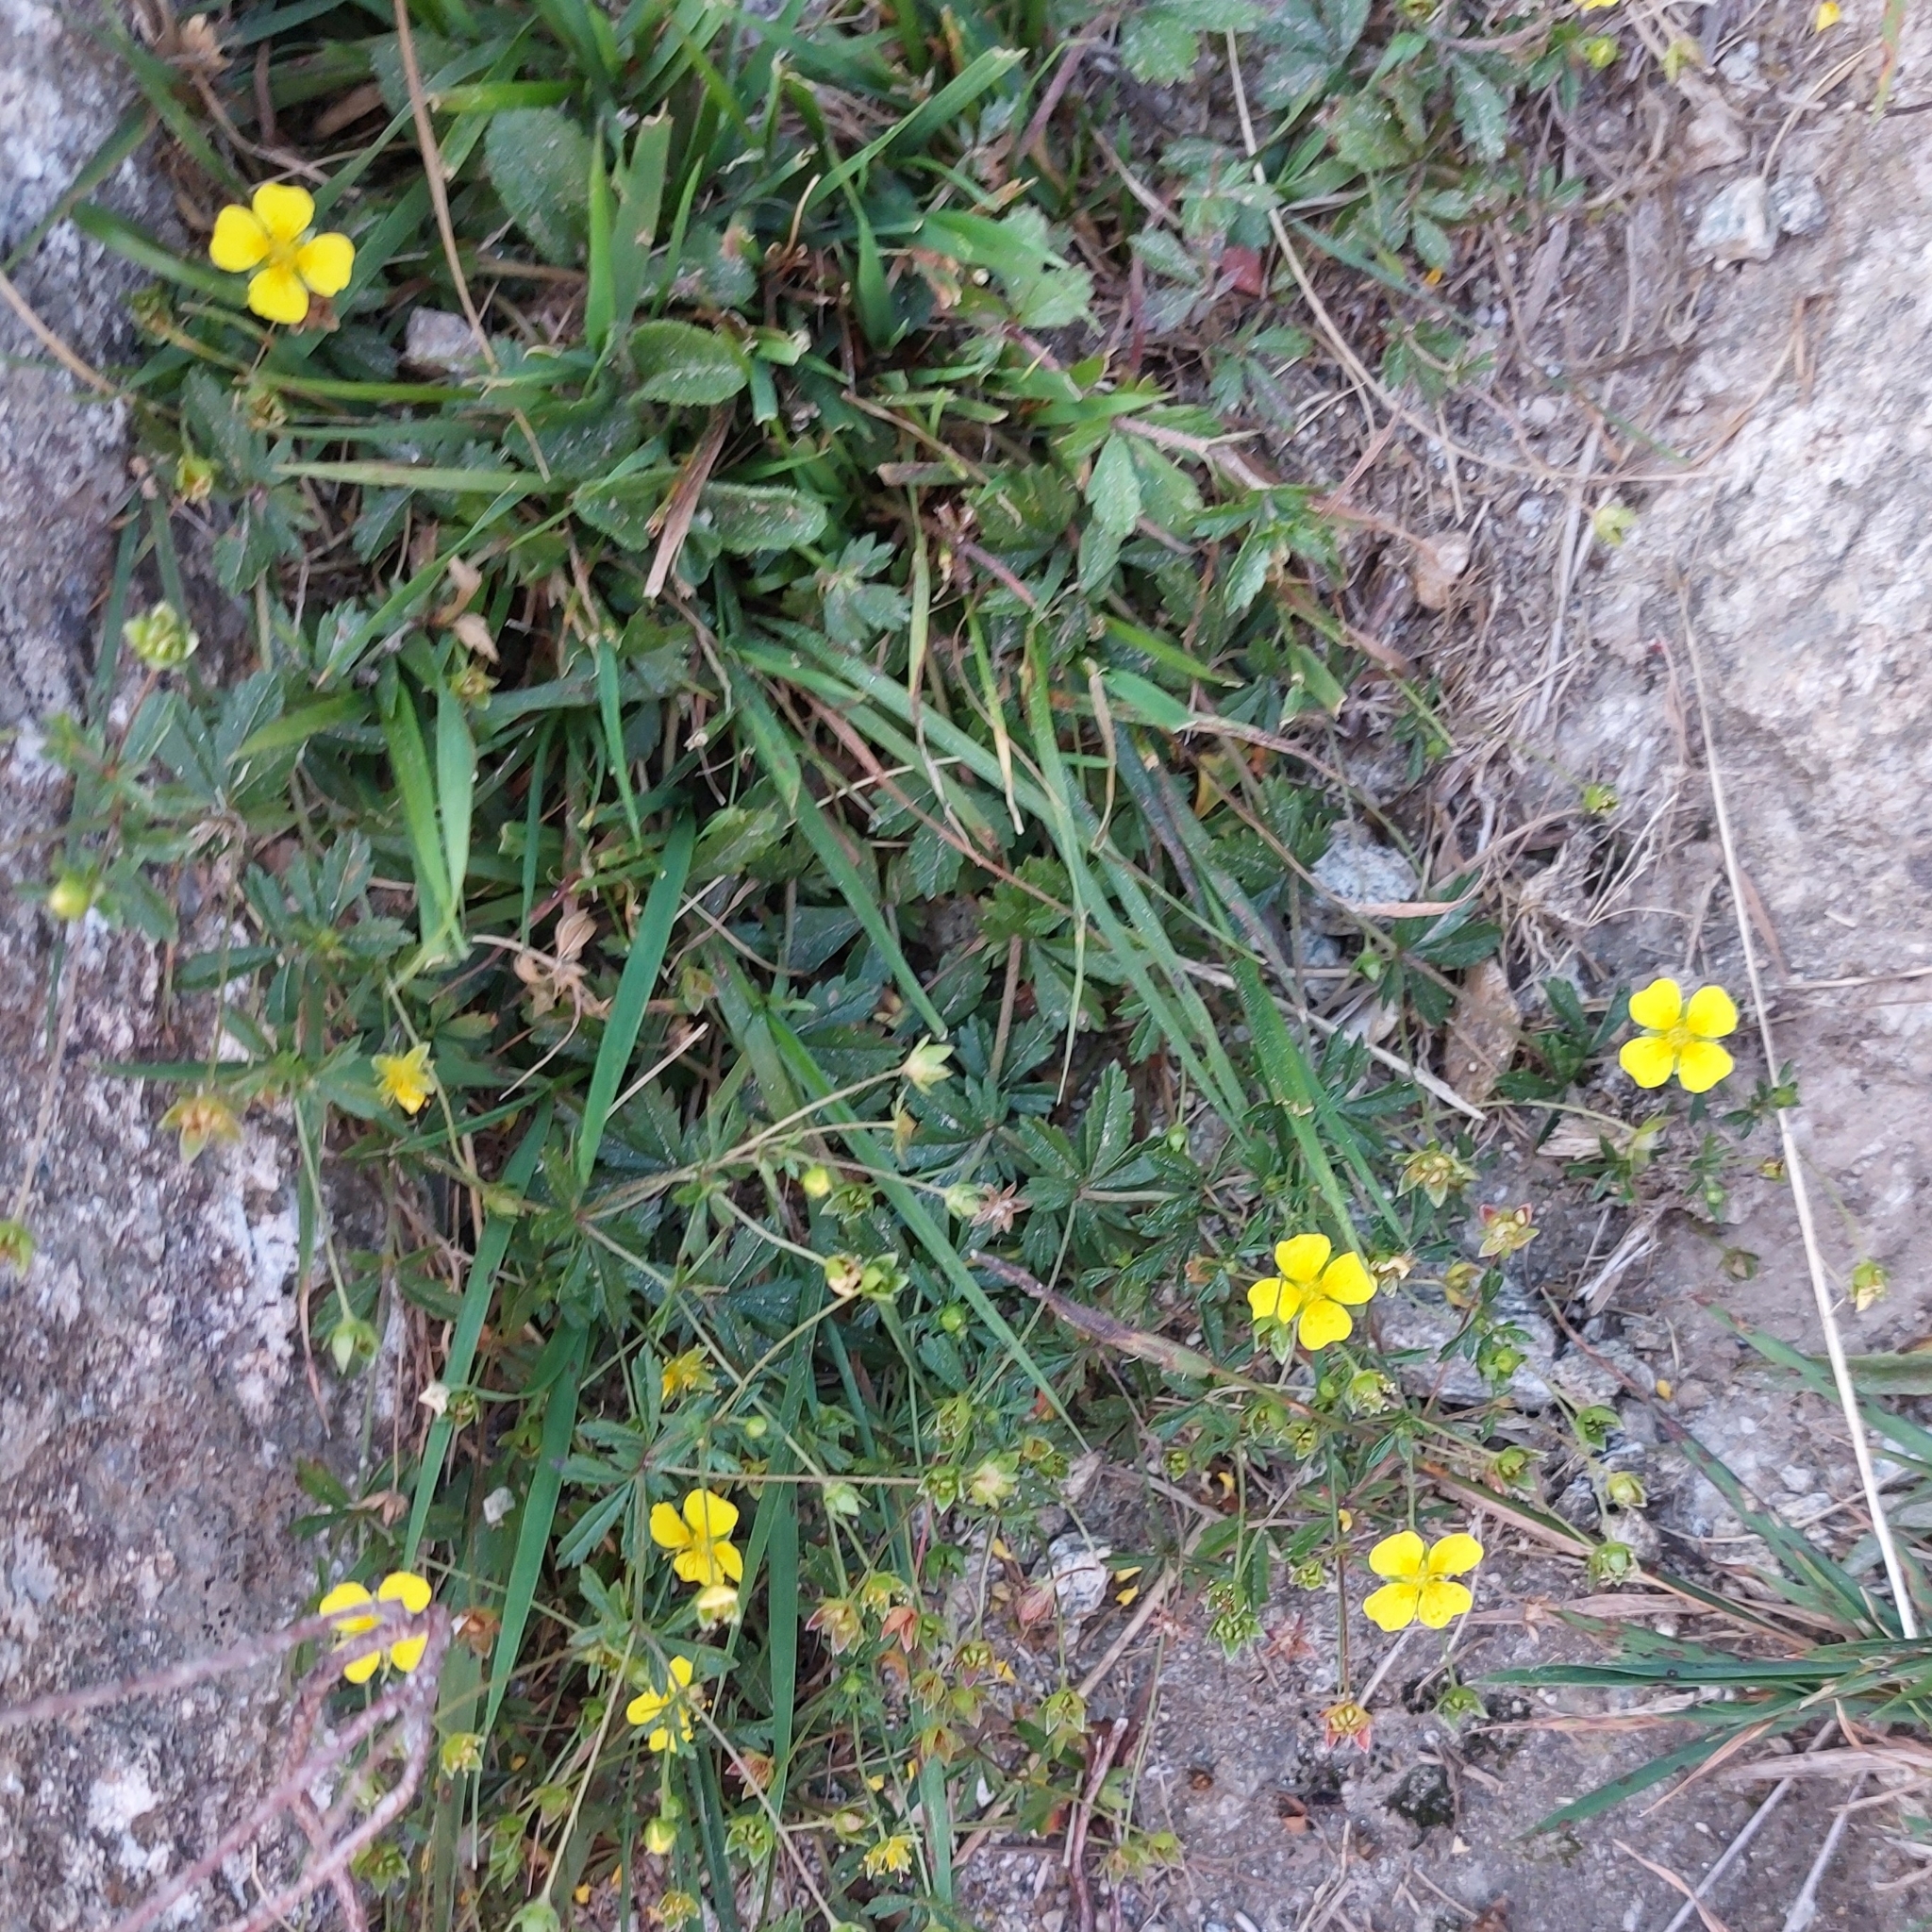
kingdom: Plantae
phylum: Tracheophyta
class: Magnoliopsida
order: Rosales
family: Rosaceae
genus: Potentilla
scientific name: Potentilla erecta
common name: Tormentil
